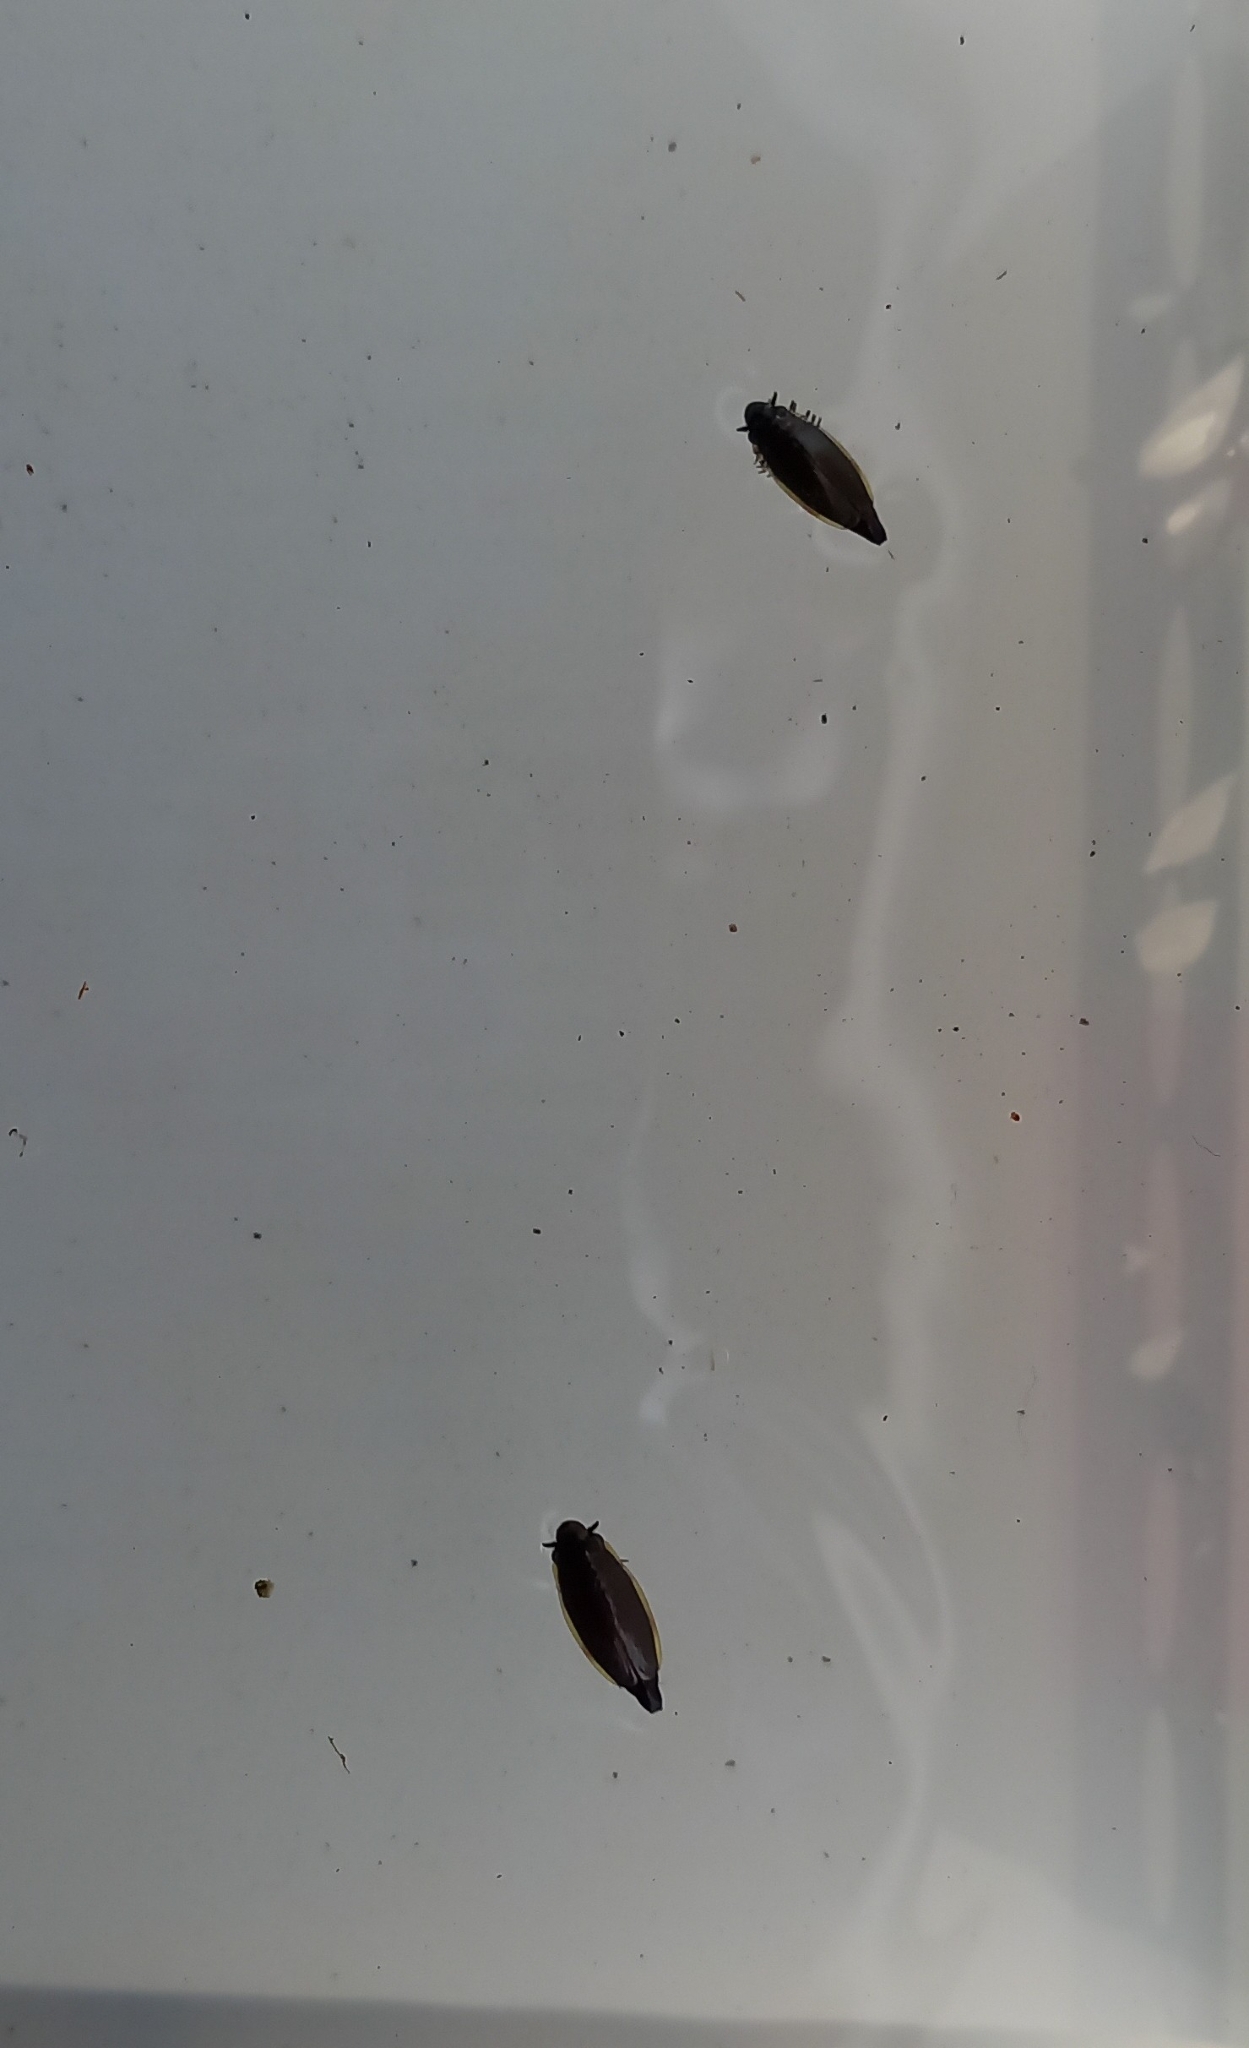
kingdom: Animalia
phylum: Arthropoda
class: Insecta
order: Coleoptera
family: Gyrinidae
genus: Aulonogyrus
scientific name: Aulonogyrus
